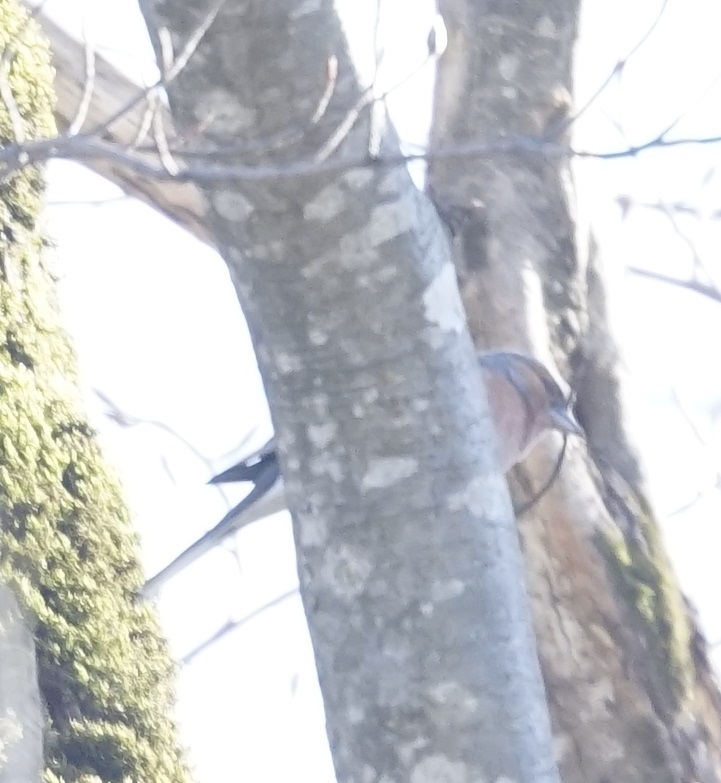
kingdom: Animalia
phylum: Chordata
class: Aves
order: Passeriformes
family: Fringillidae
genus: Fringilla
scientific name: Fringilla coelebs
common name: Common chaffinch
